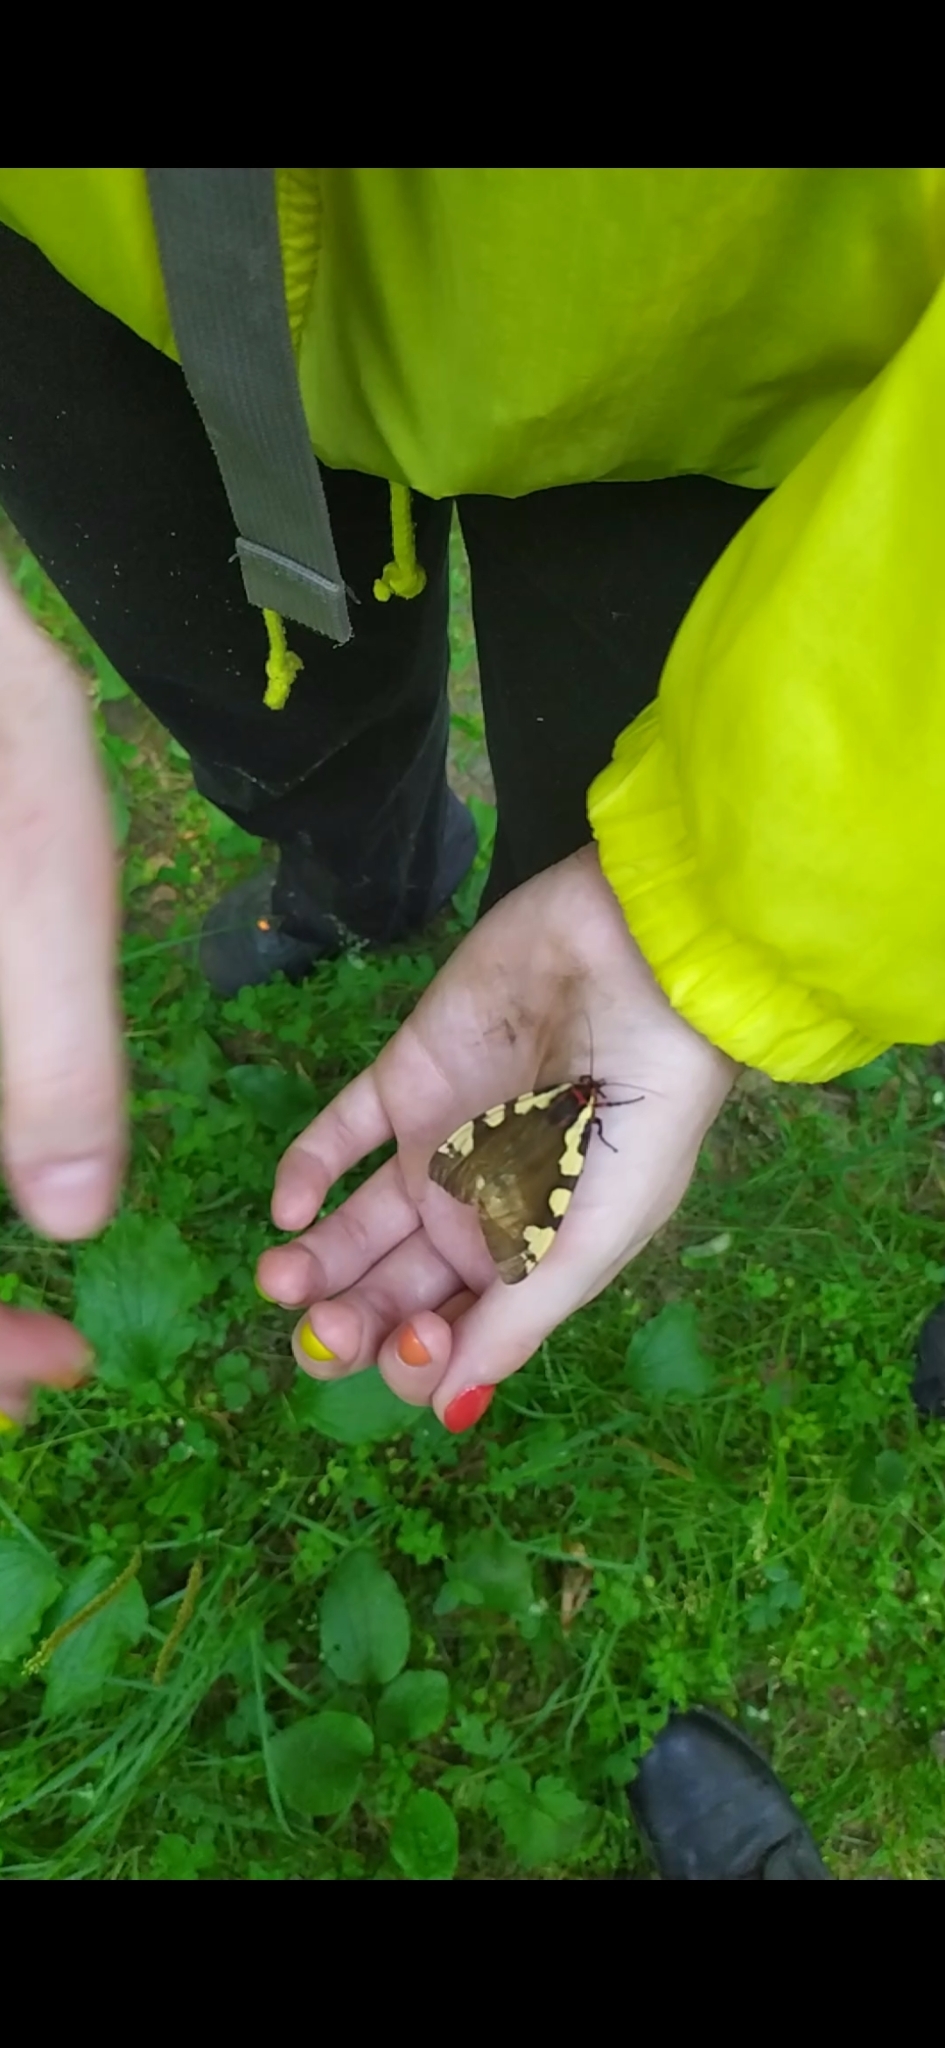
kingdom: Animalia
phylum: Arthropoda
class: Insecta
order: Lepidoptera
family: Erebidae
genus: Pericallia
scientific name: Pericallia matronula
